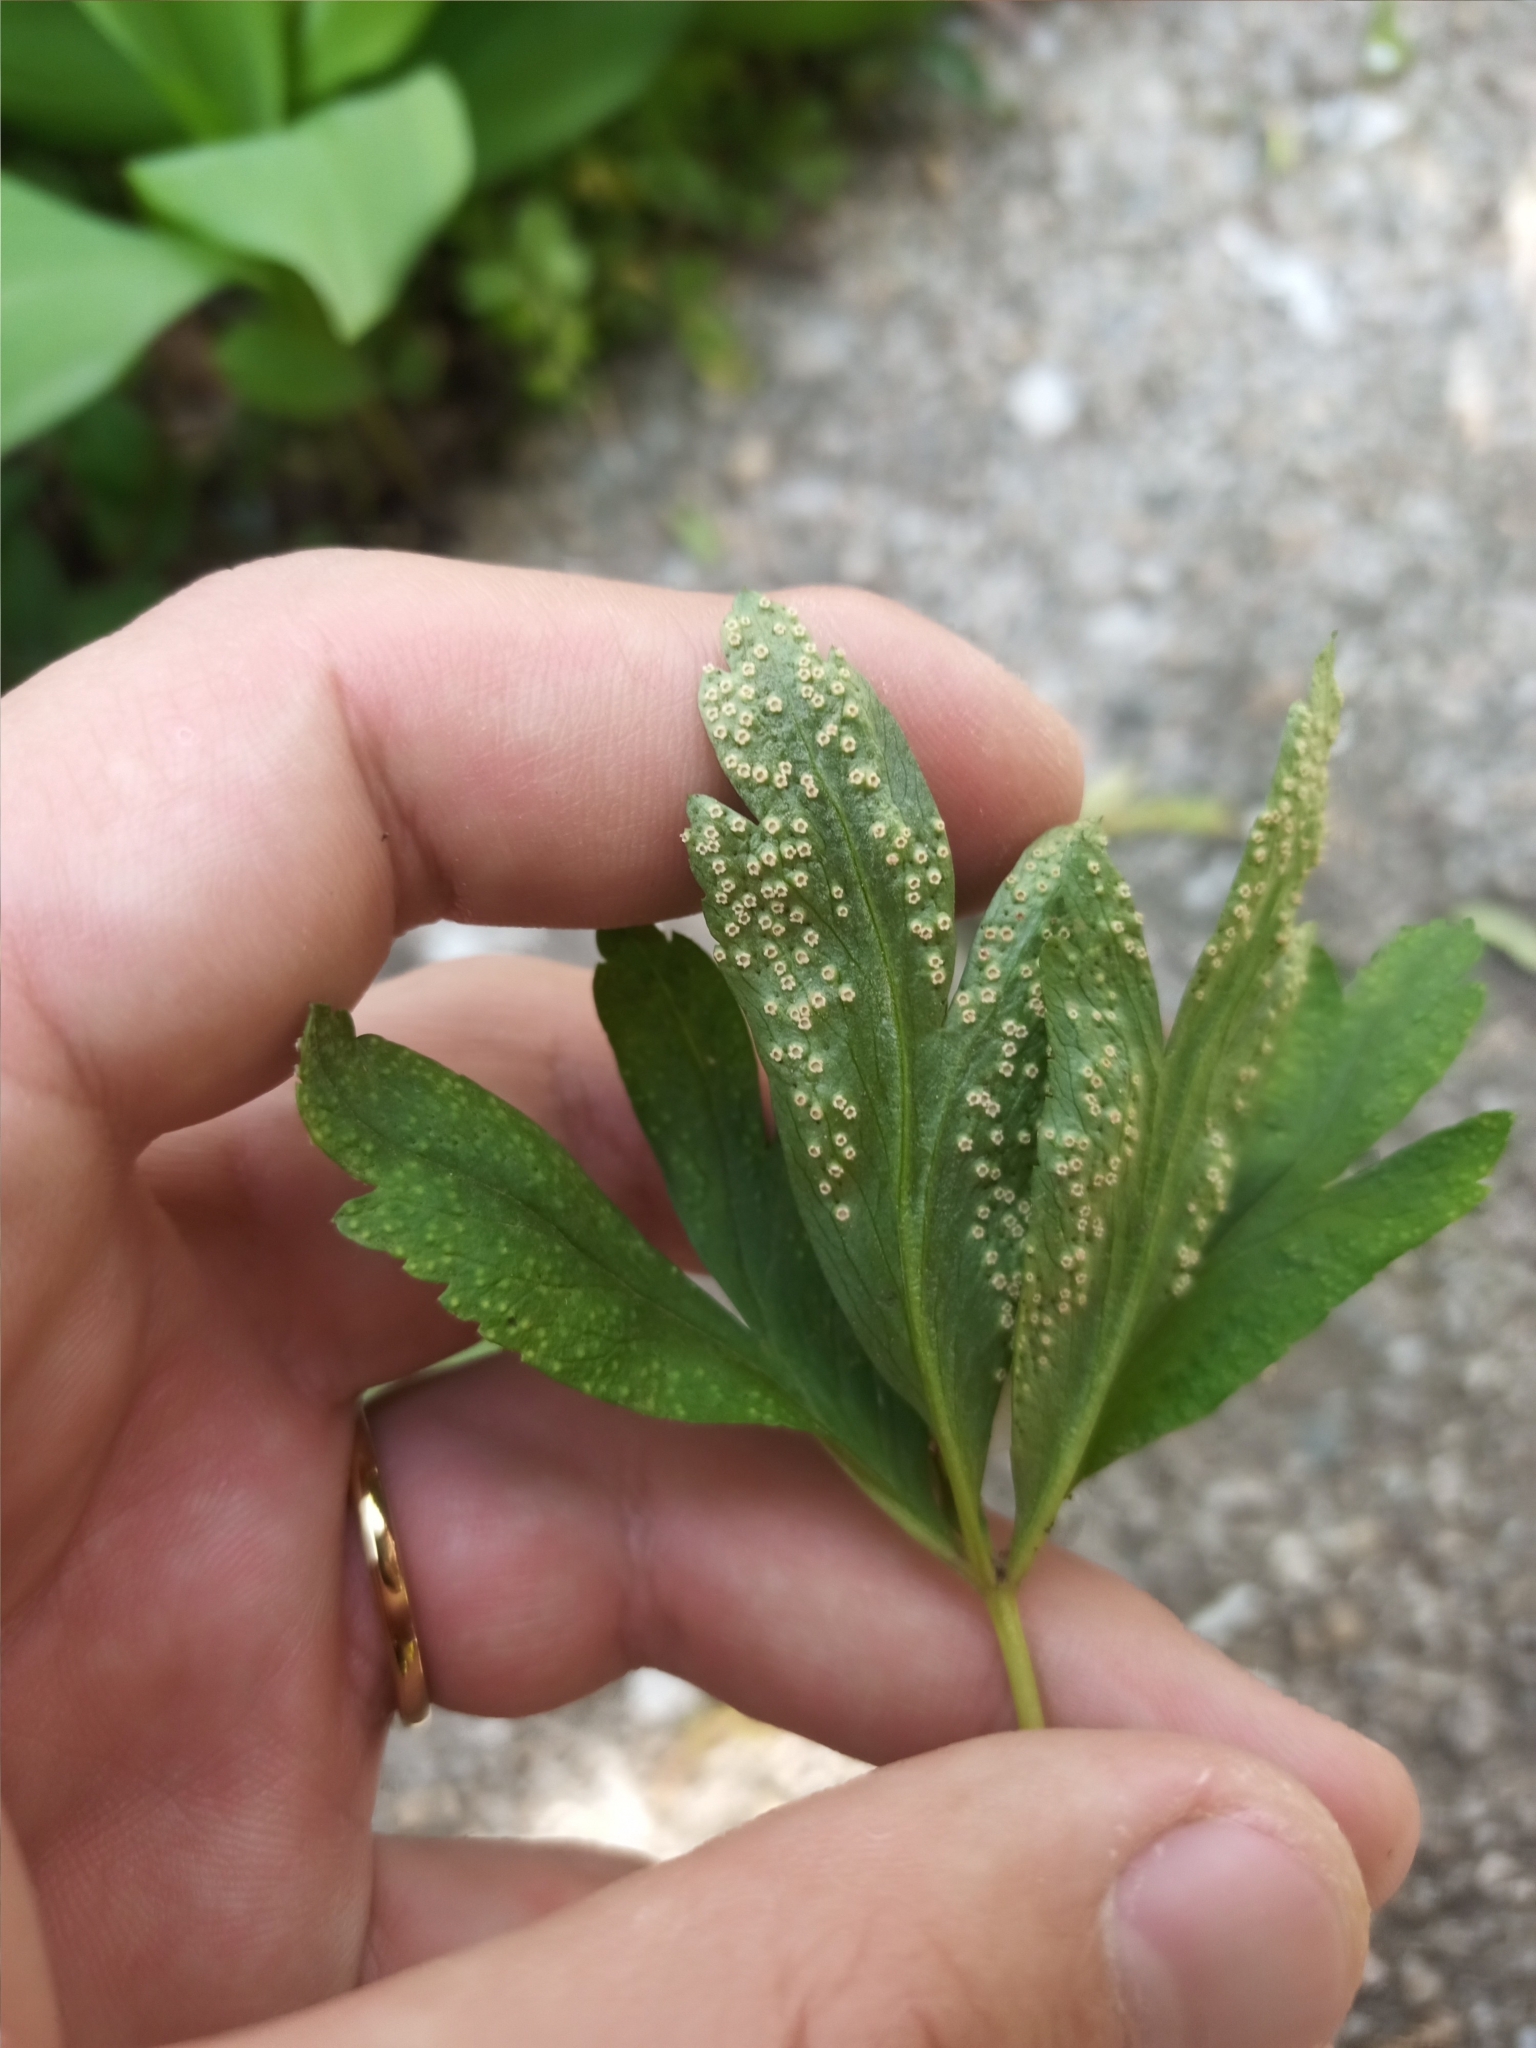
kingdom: Fungi
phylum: Basidiomycota
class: Pucciniomycetes
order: Pucciniales
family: Ochropsoraceae
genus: Ochropsora
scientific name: Ochropsora ariae
